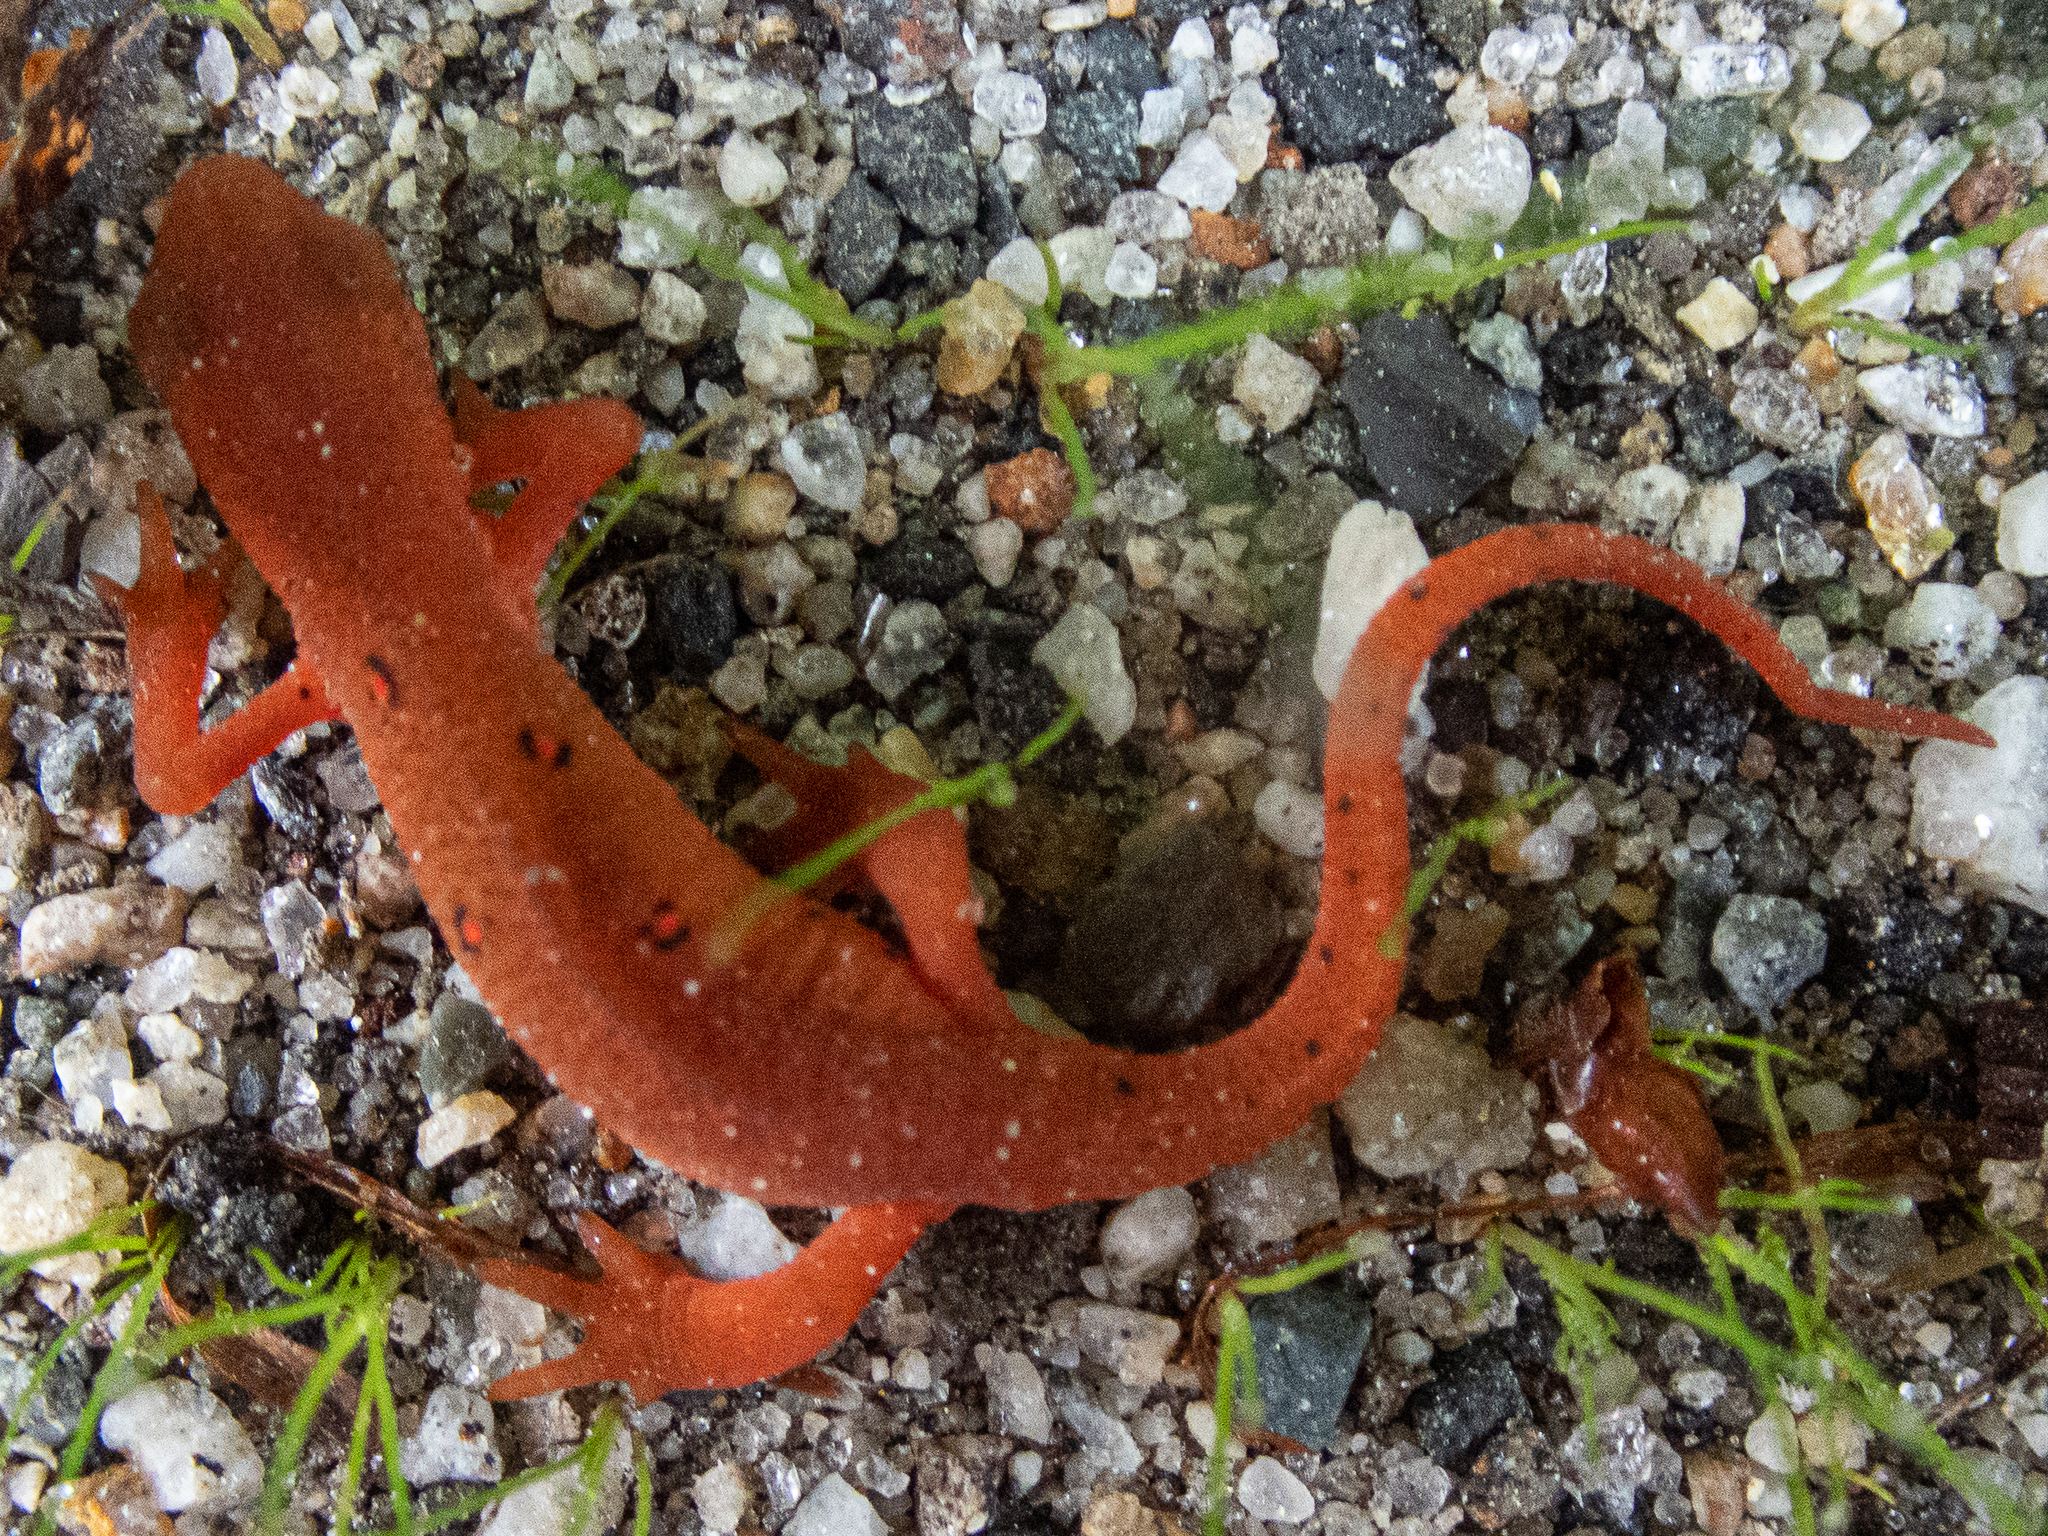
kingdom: Animalia
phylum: Chordata
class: Amphibia
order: Caudata
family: Salamandridae
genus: Notophthalmus
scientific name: Notophthalmus viridescens
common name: Eastern newt
